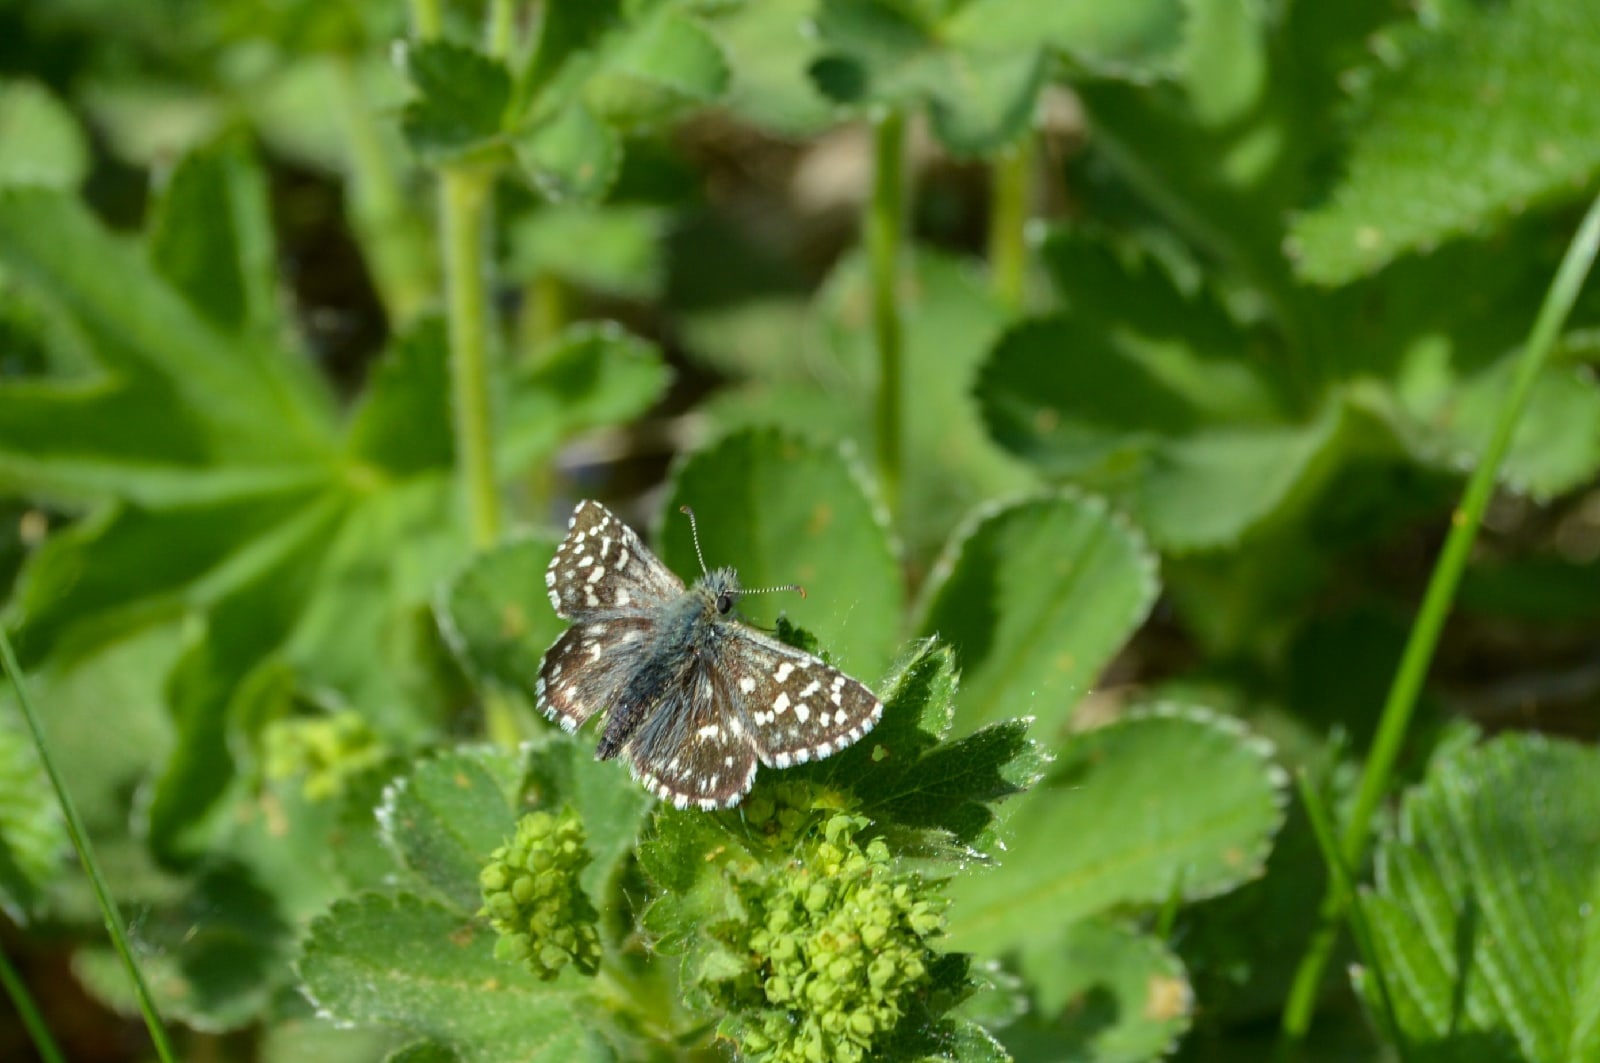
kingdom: Animalia
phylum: Arthropoda
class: Insecta
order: Lepidoptera
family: Hesperiidae
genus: Pyrgus
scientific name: Pyrgus malvae
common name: Grizzled skipper
